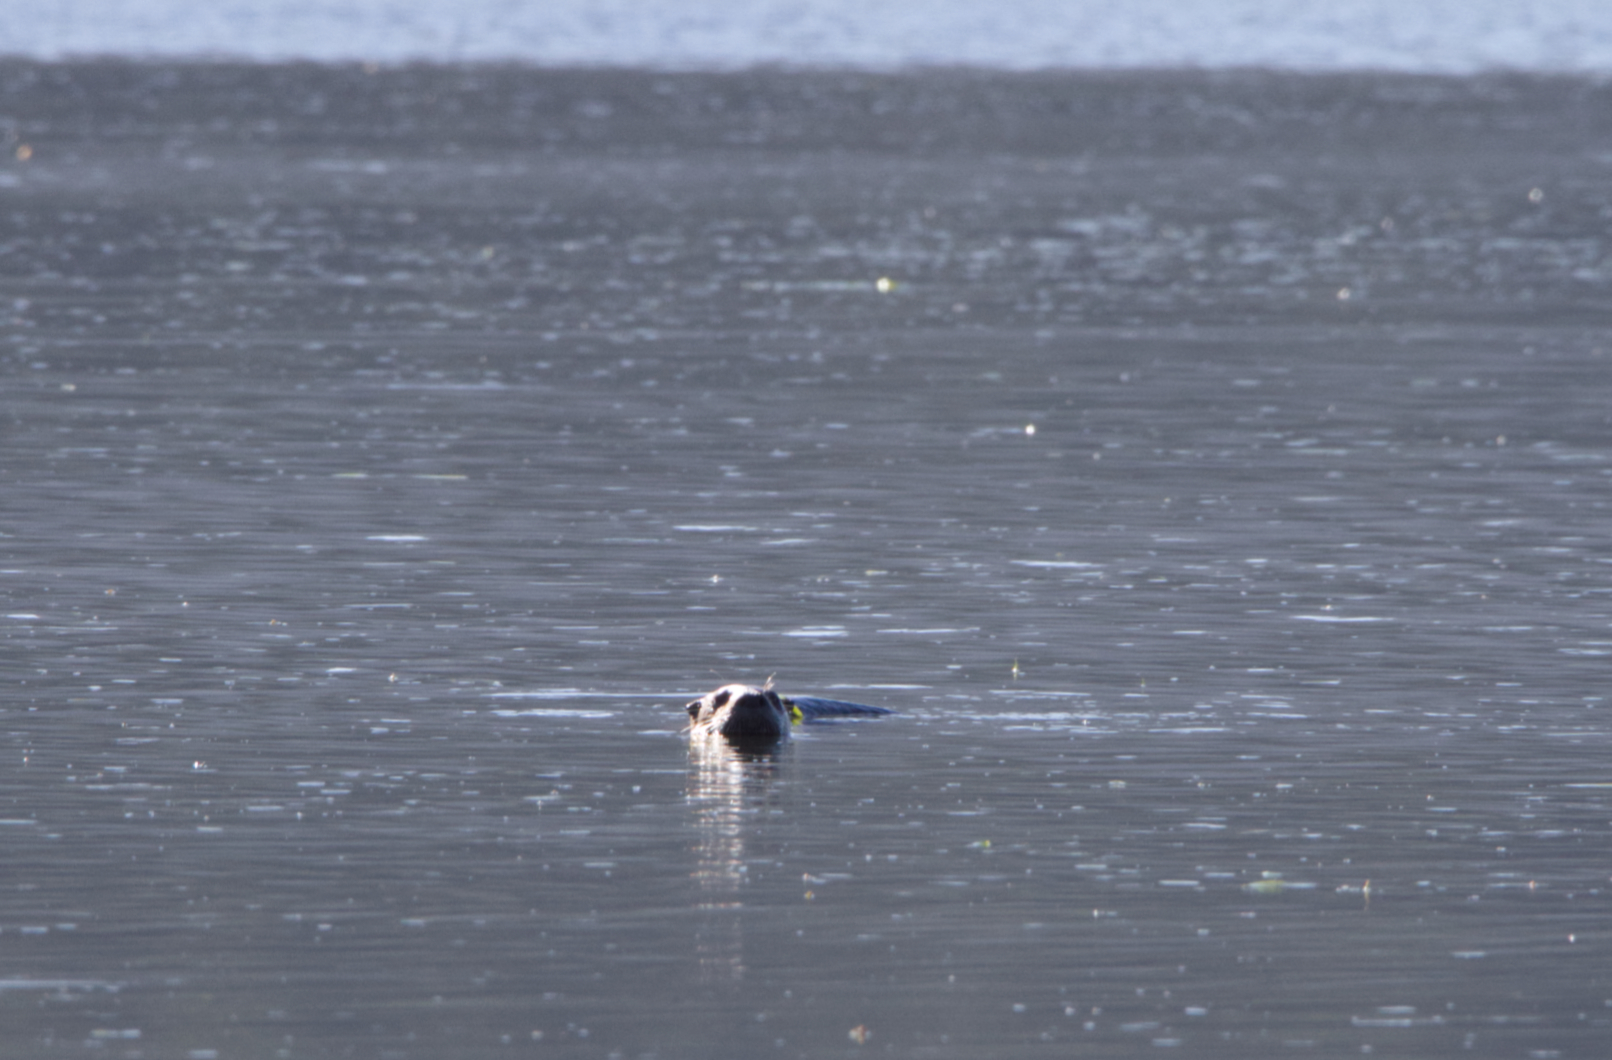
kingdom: Animalia
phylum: Chordata
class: Mammalia
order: Carnivora
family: Mustelidae
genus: Lontra
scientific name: Lontra canadensis
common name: North american river otter
